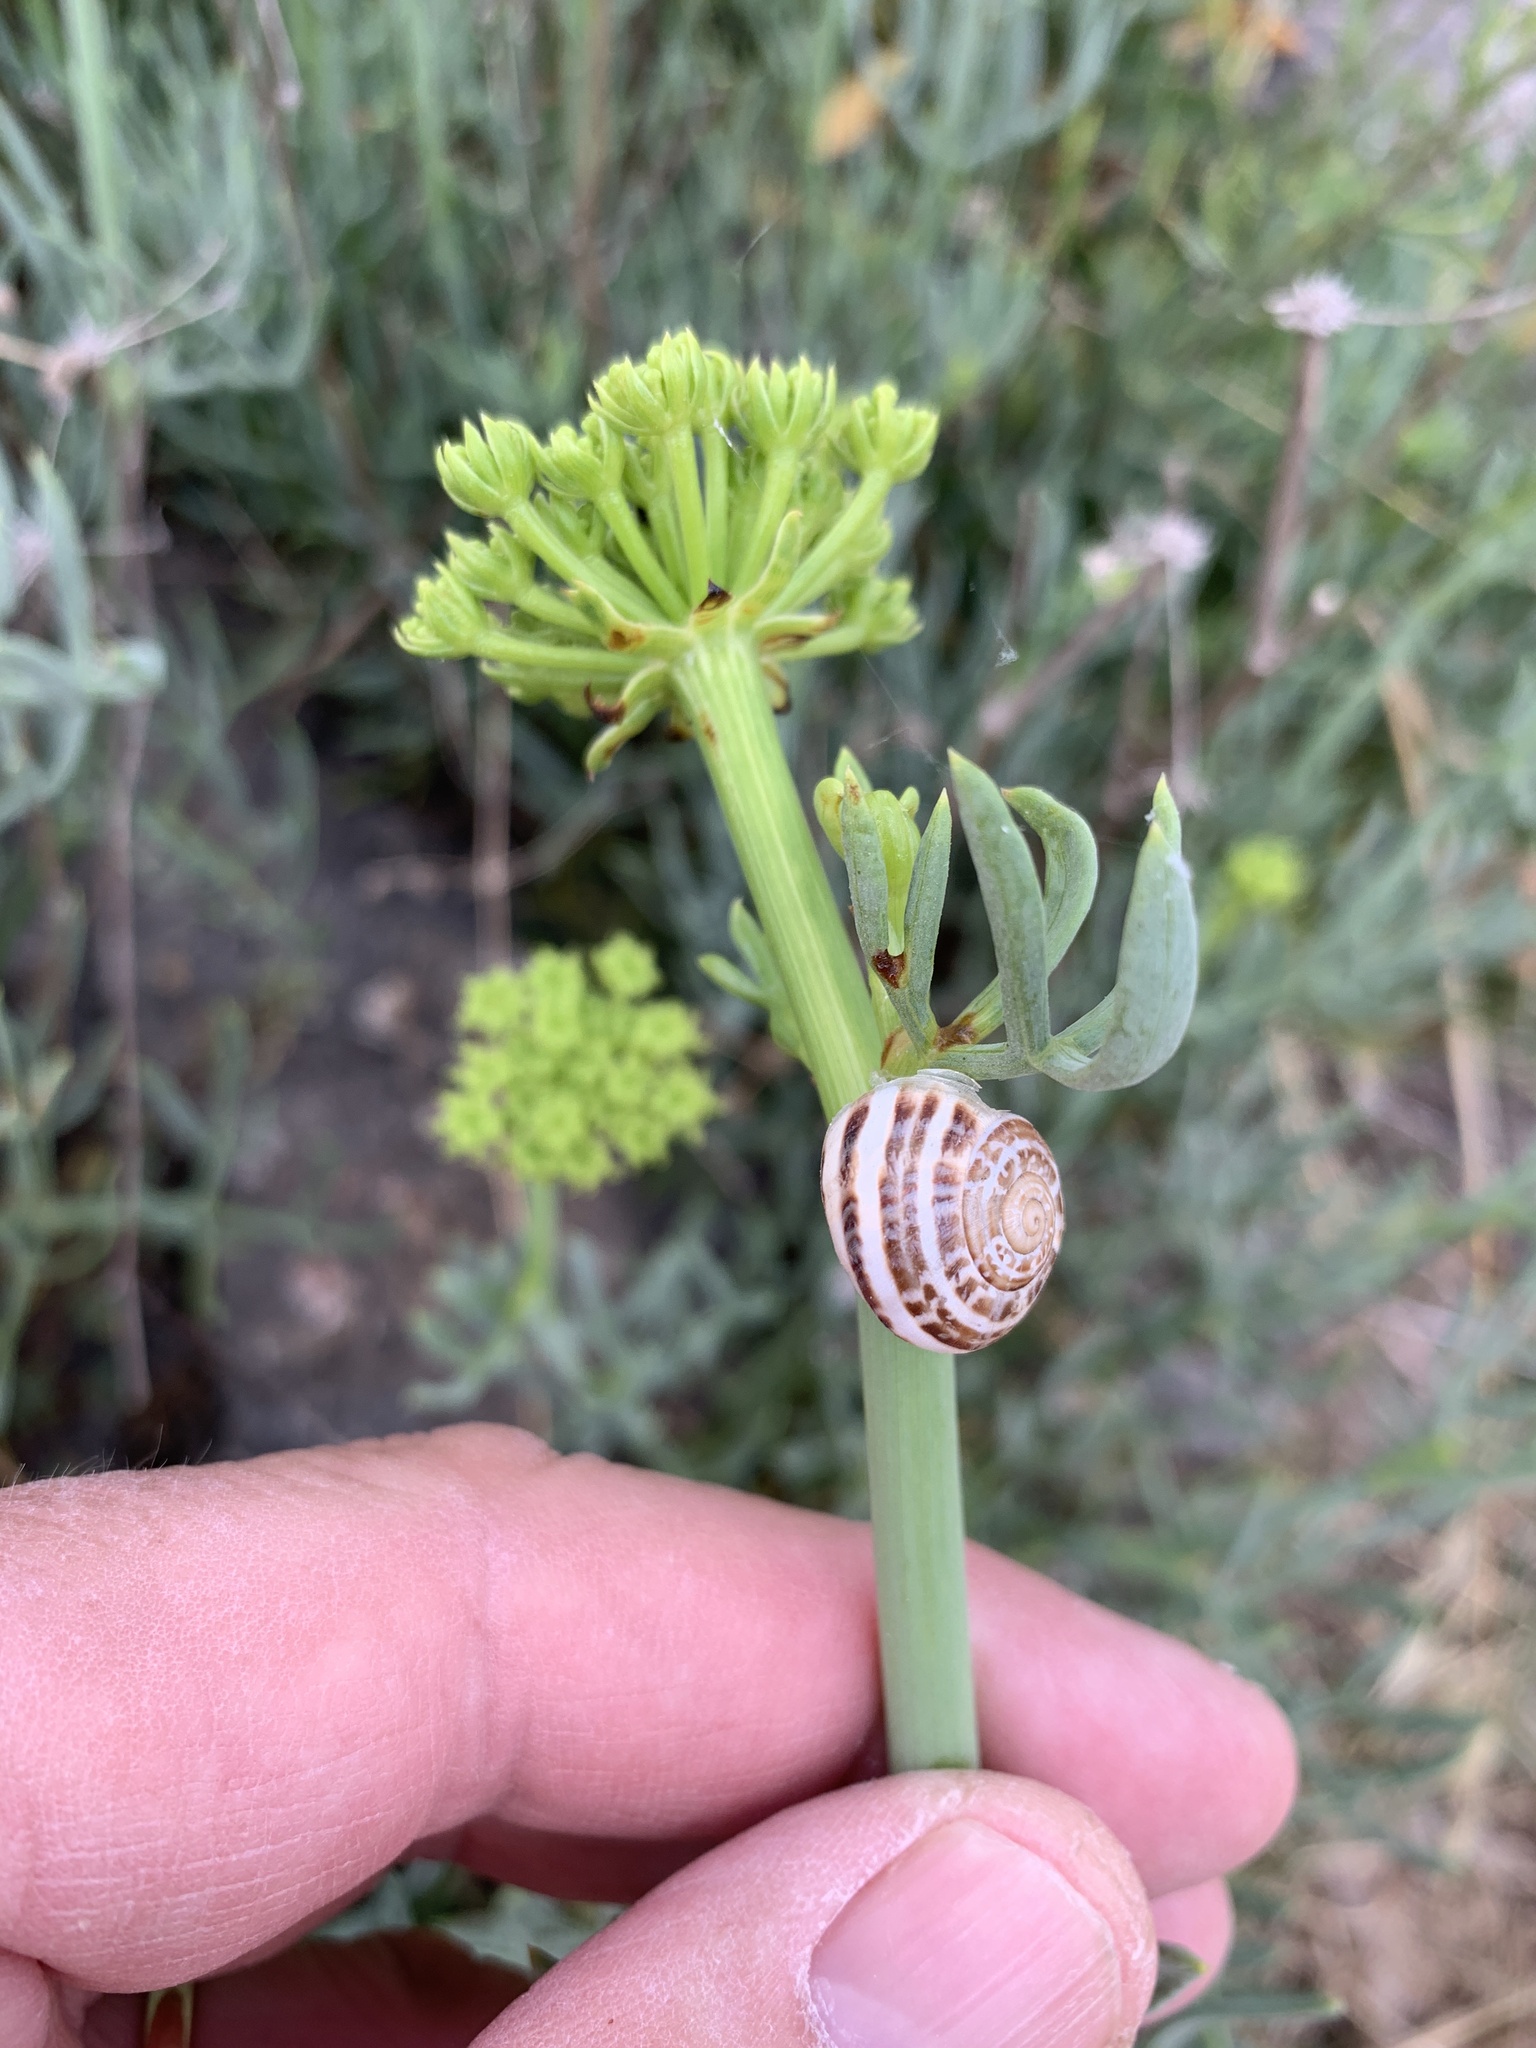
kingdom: Plantae
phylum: Tracheophyta
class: Magnoliopsida
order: Apiales
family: Apiaceae
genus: Crithmum
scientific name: Crithmum maritimum
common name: Rock samphire
